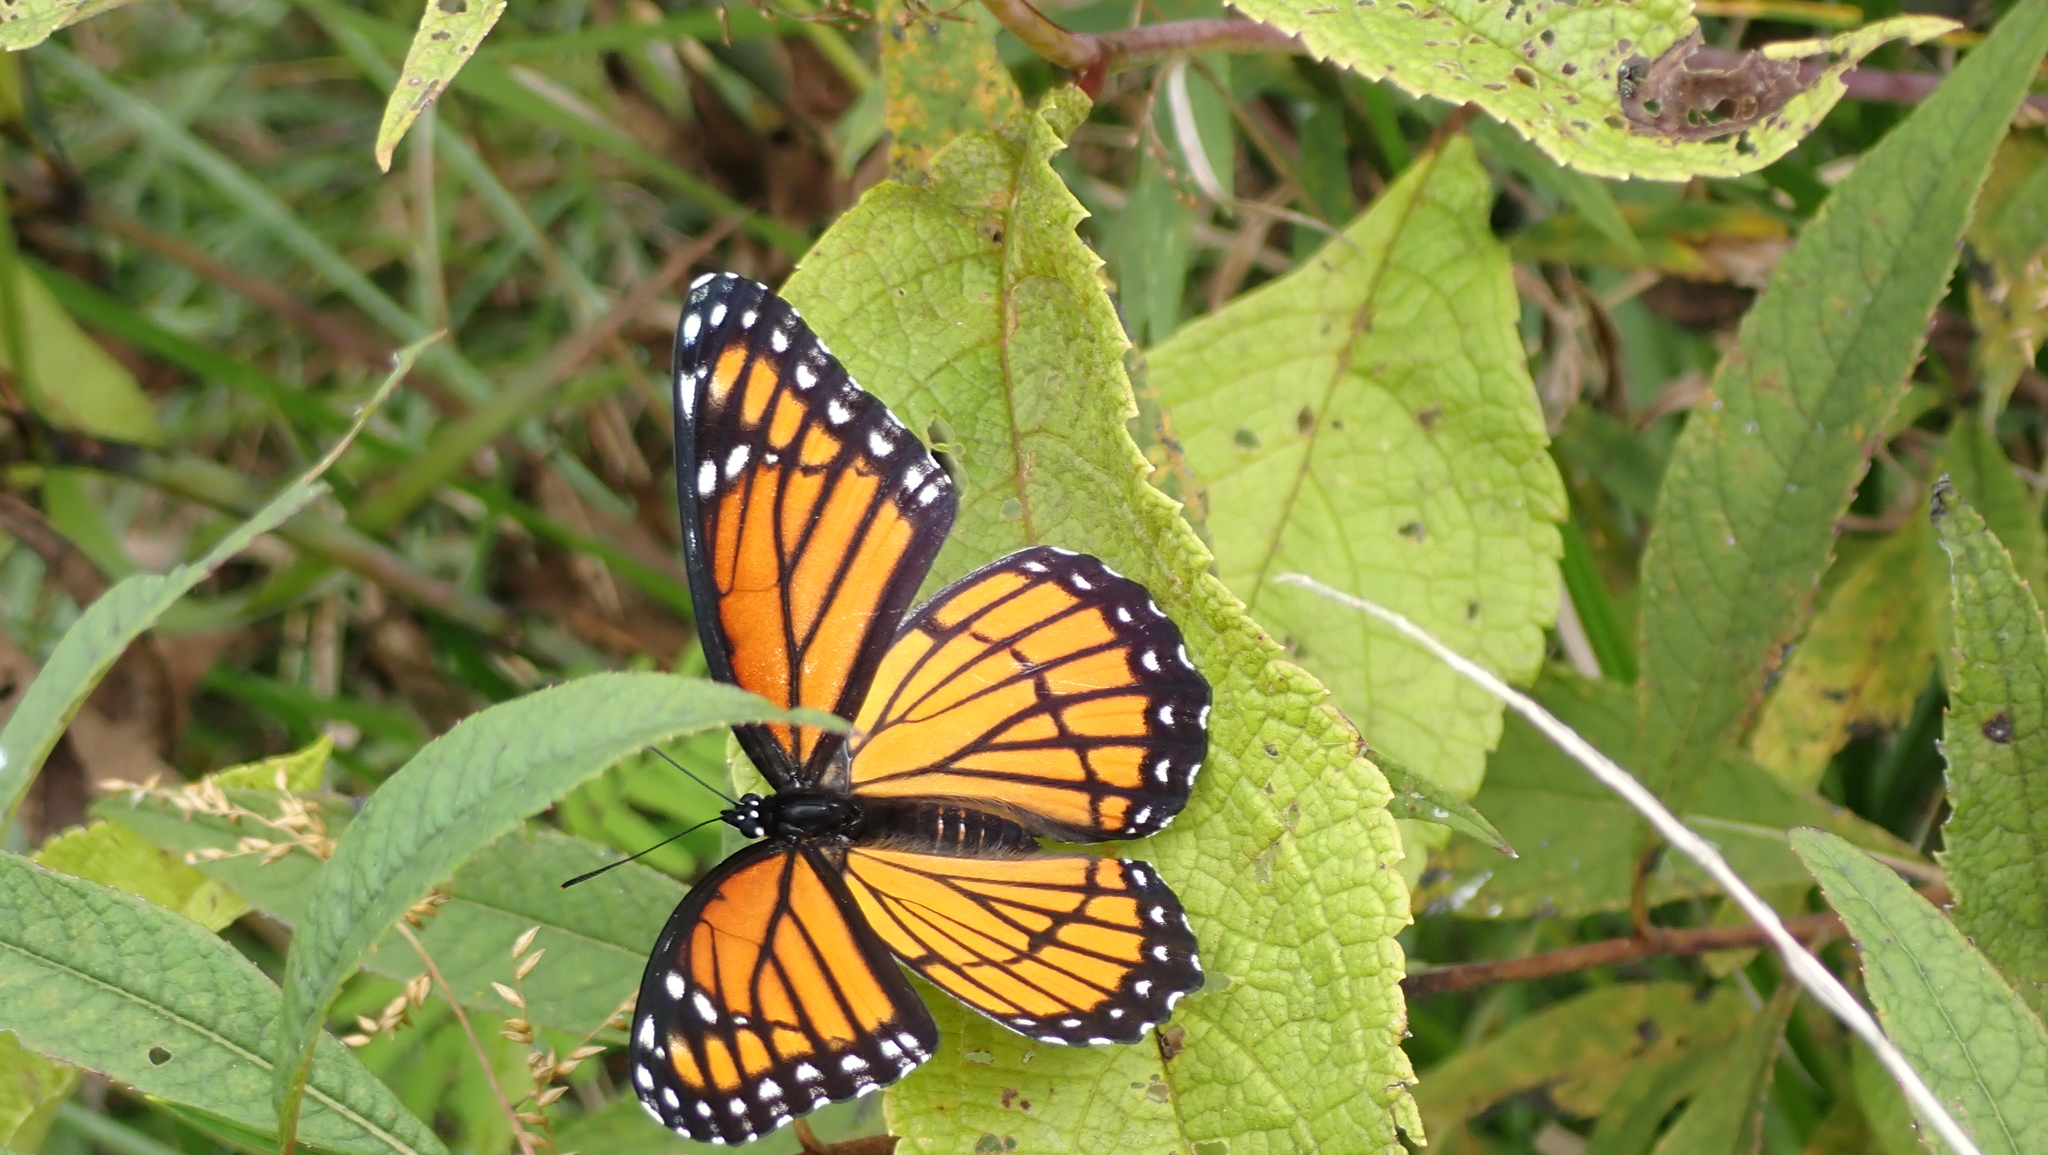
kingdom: Animalia
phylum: Arthropoda
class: Insecta
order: Lepidoptera
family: Nymphalidae
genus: Limenitis
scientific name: Limenitis archippus
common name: Viceroy
